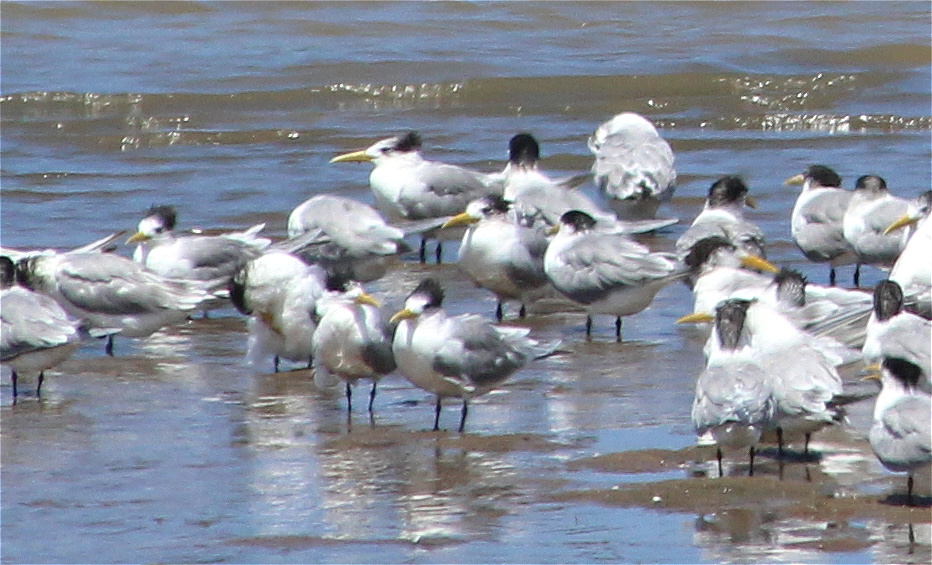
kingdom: Animalia
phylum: Chordata
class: Aves
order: Charadriiformes
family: Laridae
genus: Thalasseus
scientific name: Thalasseus bergii
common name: Greater crested tern
